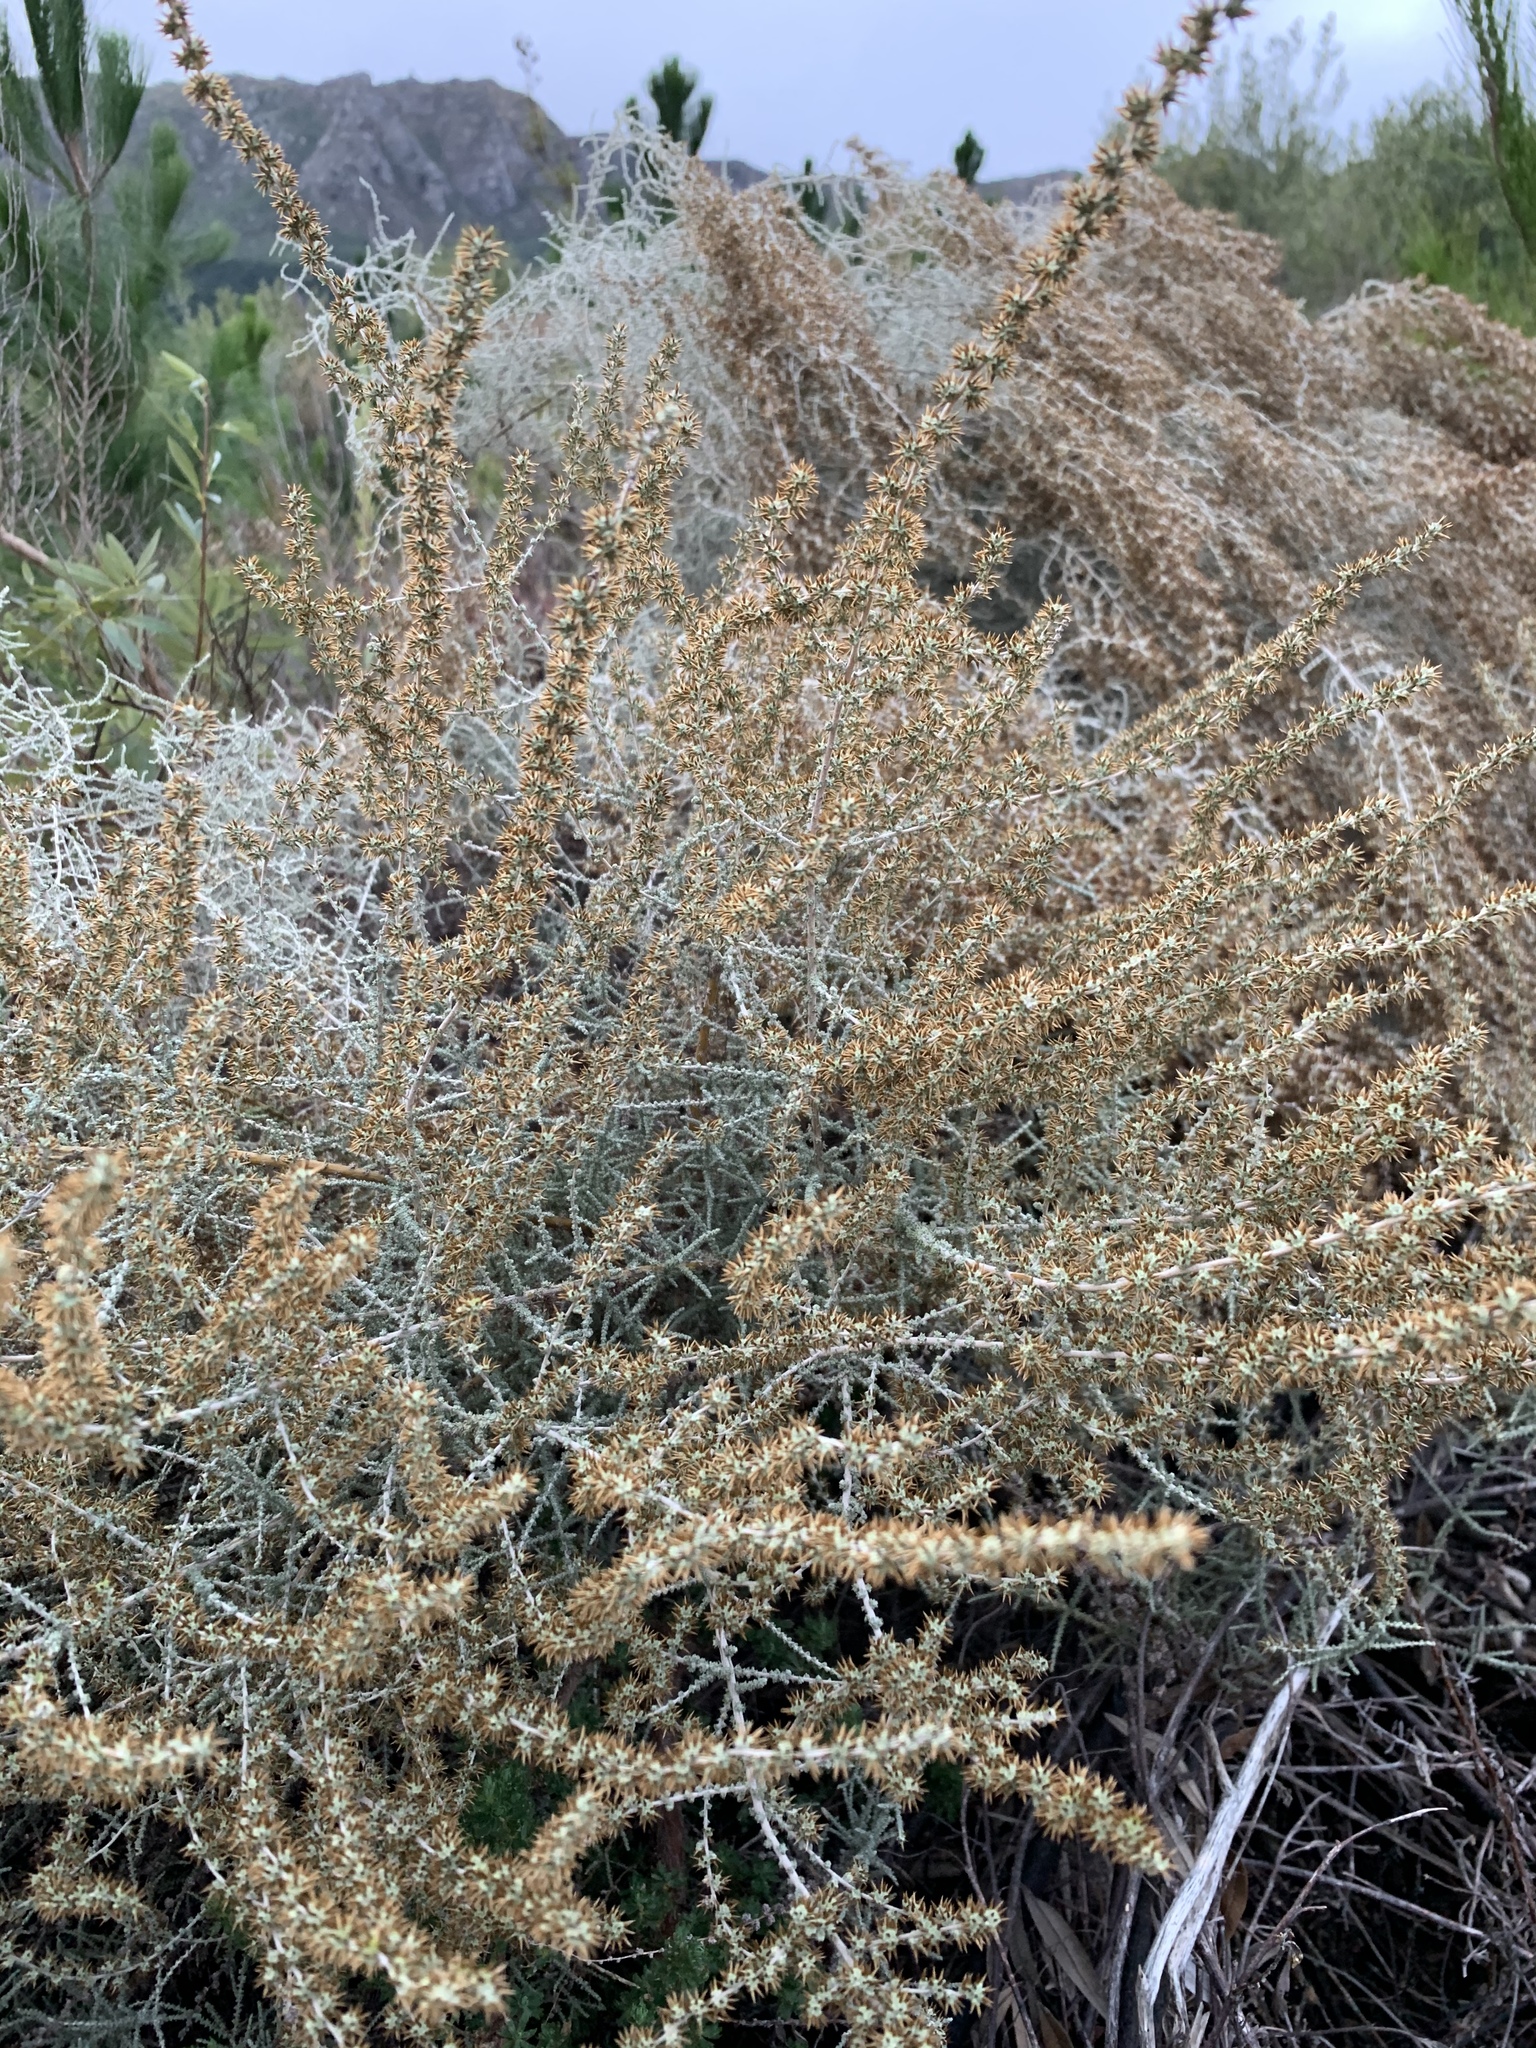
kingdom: Plantae
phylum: Tracheophyta
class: Magnoliopsida
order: Asterales
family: Asteraceae
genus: Seriphium
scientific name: Seriphium plumosum
